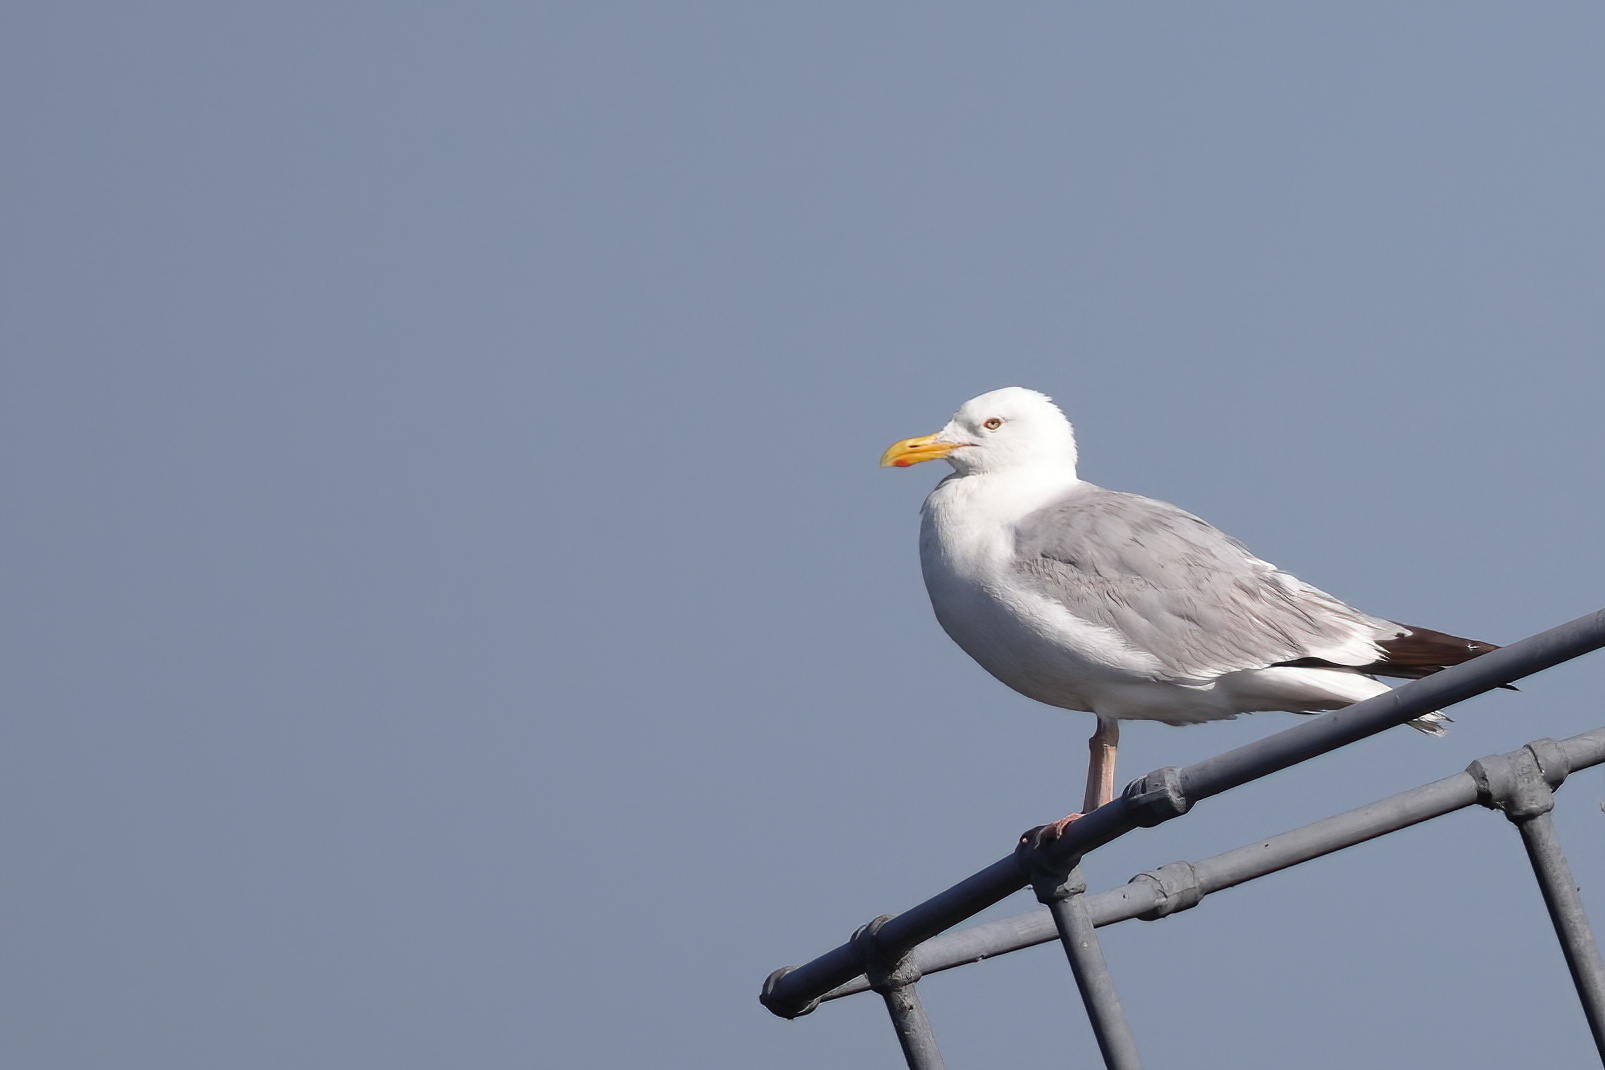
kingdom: Animalia
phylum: Chordata
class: Aves
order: Charadriiformes
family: Laridae
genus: Larus
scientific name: Larus argentatus
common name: Herring gull
